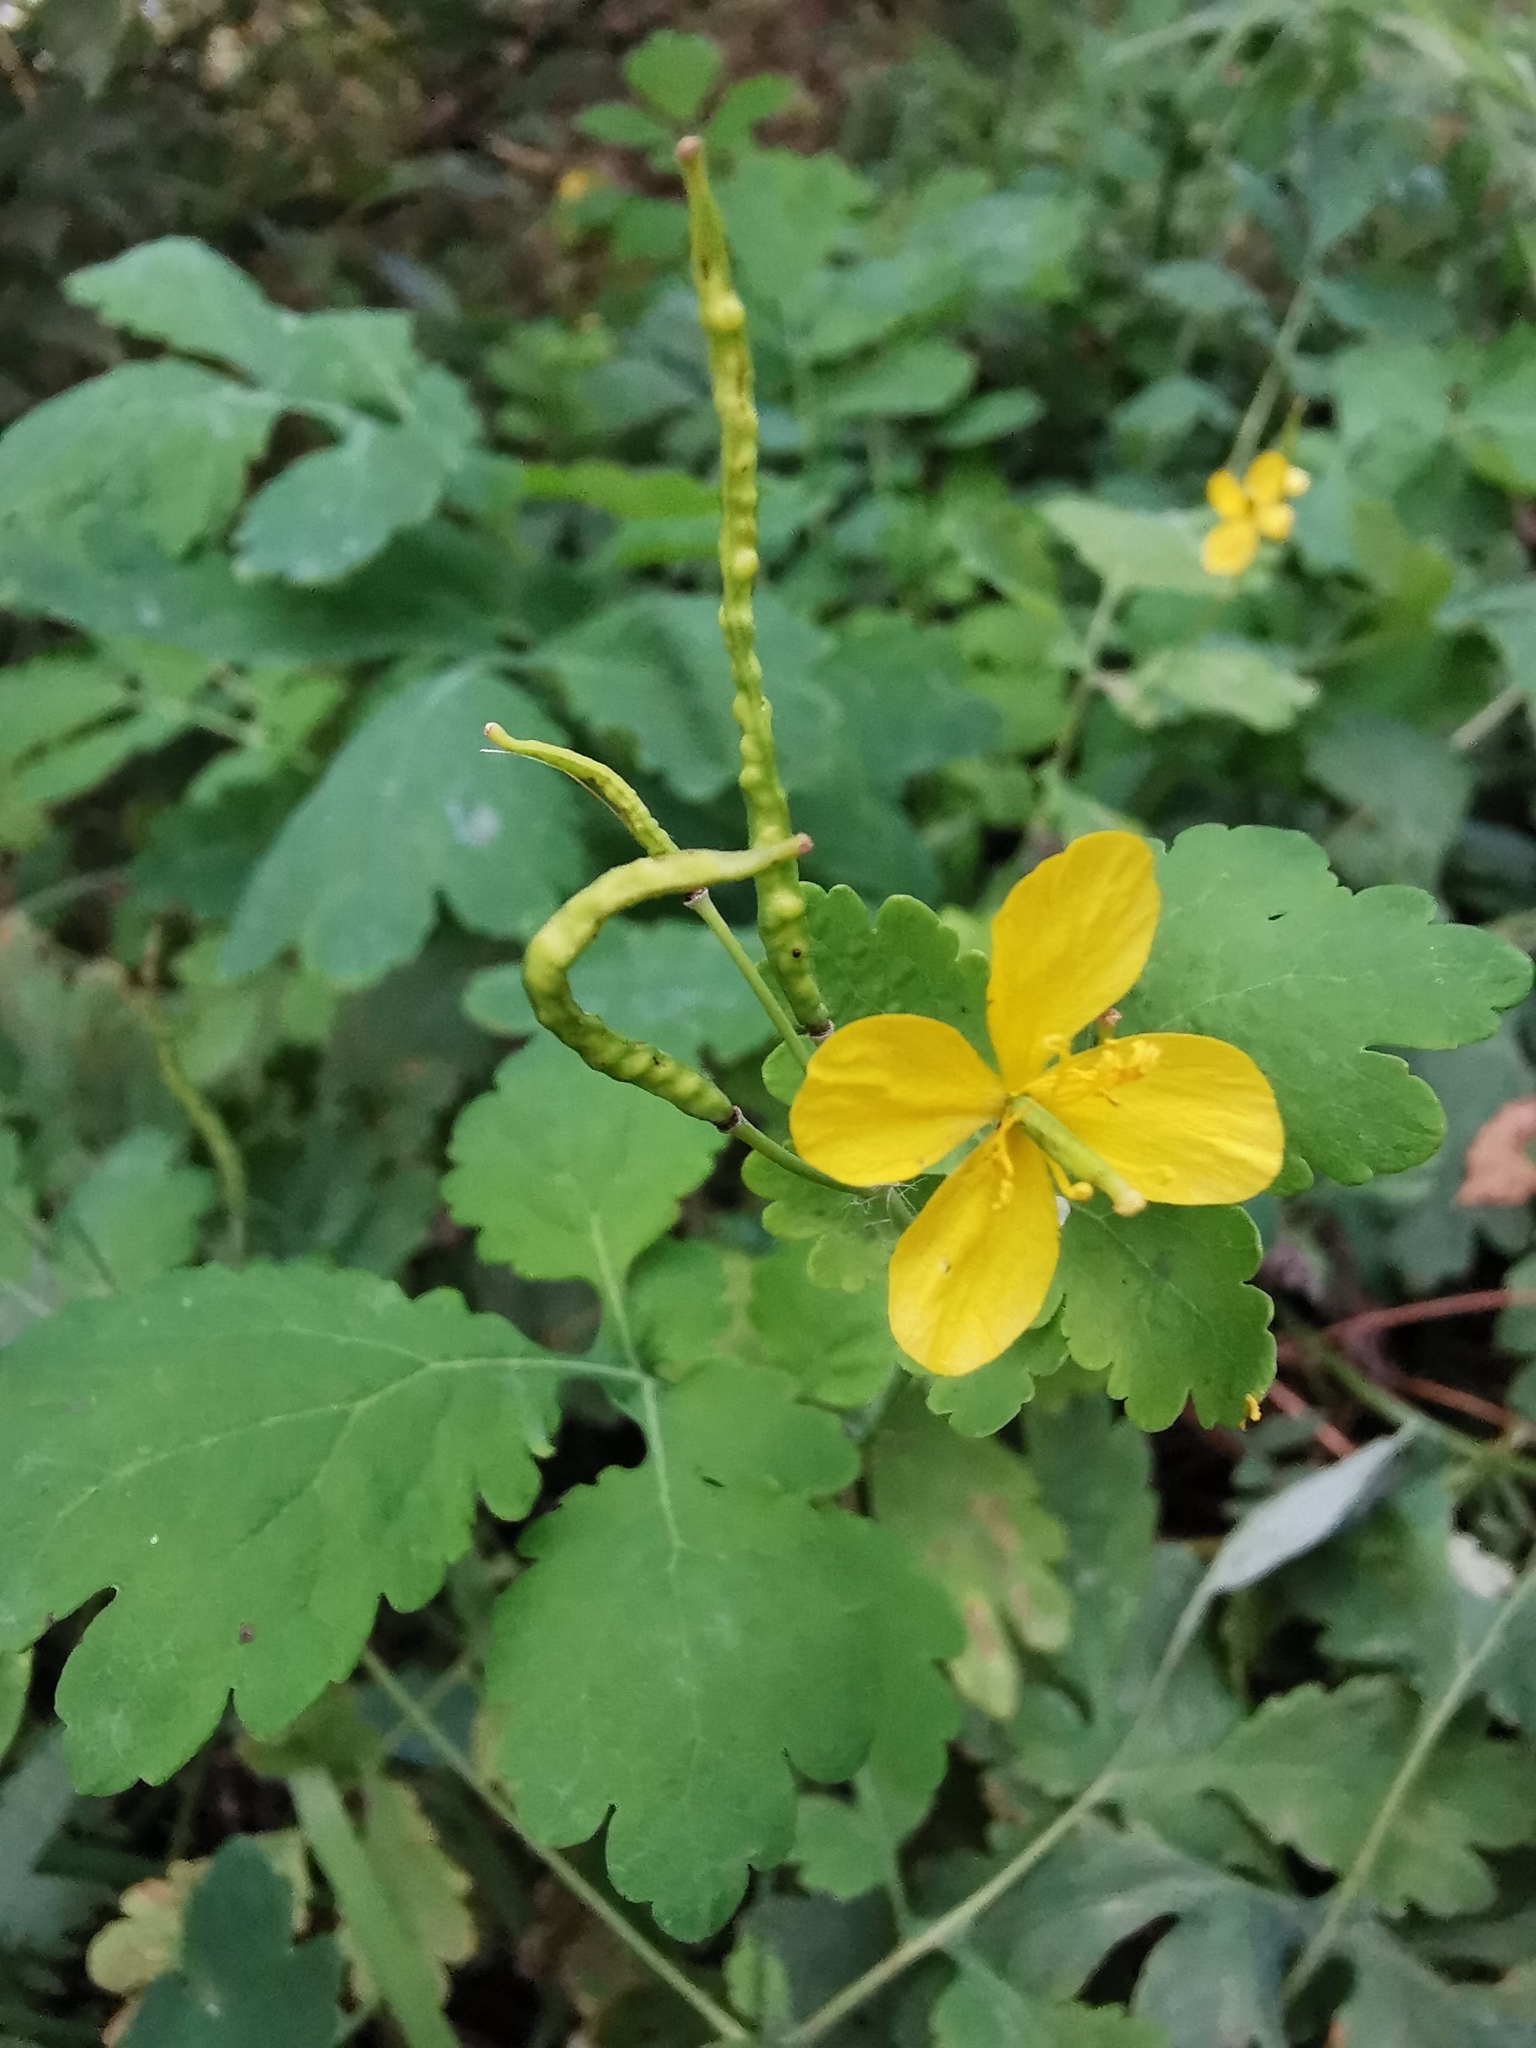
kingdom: Plantae
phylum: Tracheophyta
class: Magnoliopsida
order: Ranunculales
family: Papaveraceae
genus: Chelidonium
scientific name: Chelidonium majus
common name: Greater celandine
